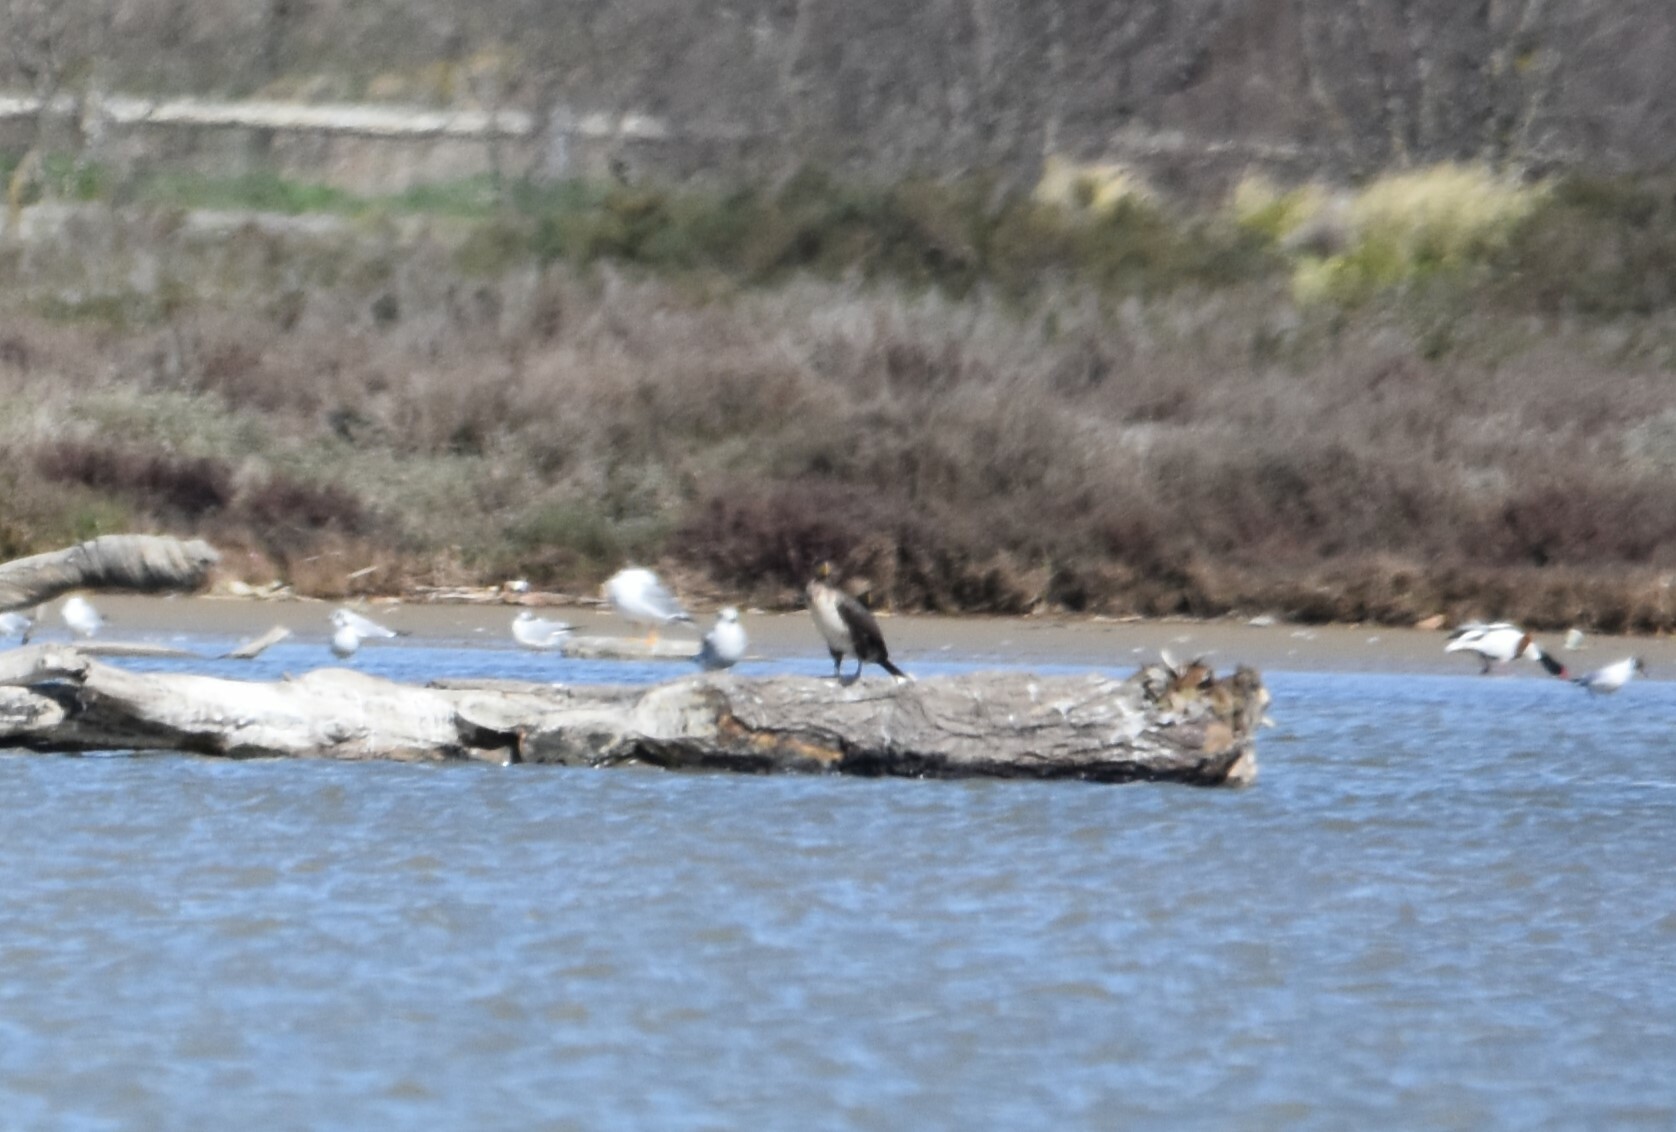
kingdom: Animalia
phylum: Chordata
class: Aves
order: Suliformes
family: Phalacrocoracidae
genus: Phalacrocorax
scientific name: Phalacrocorax carbo
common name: Great cormorant
